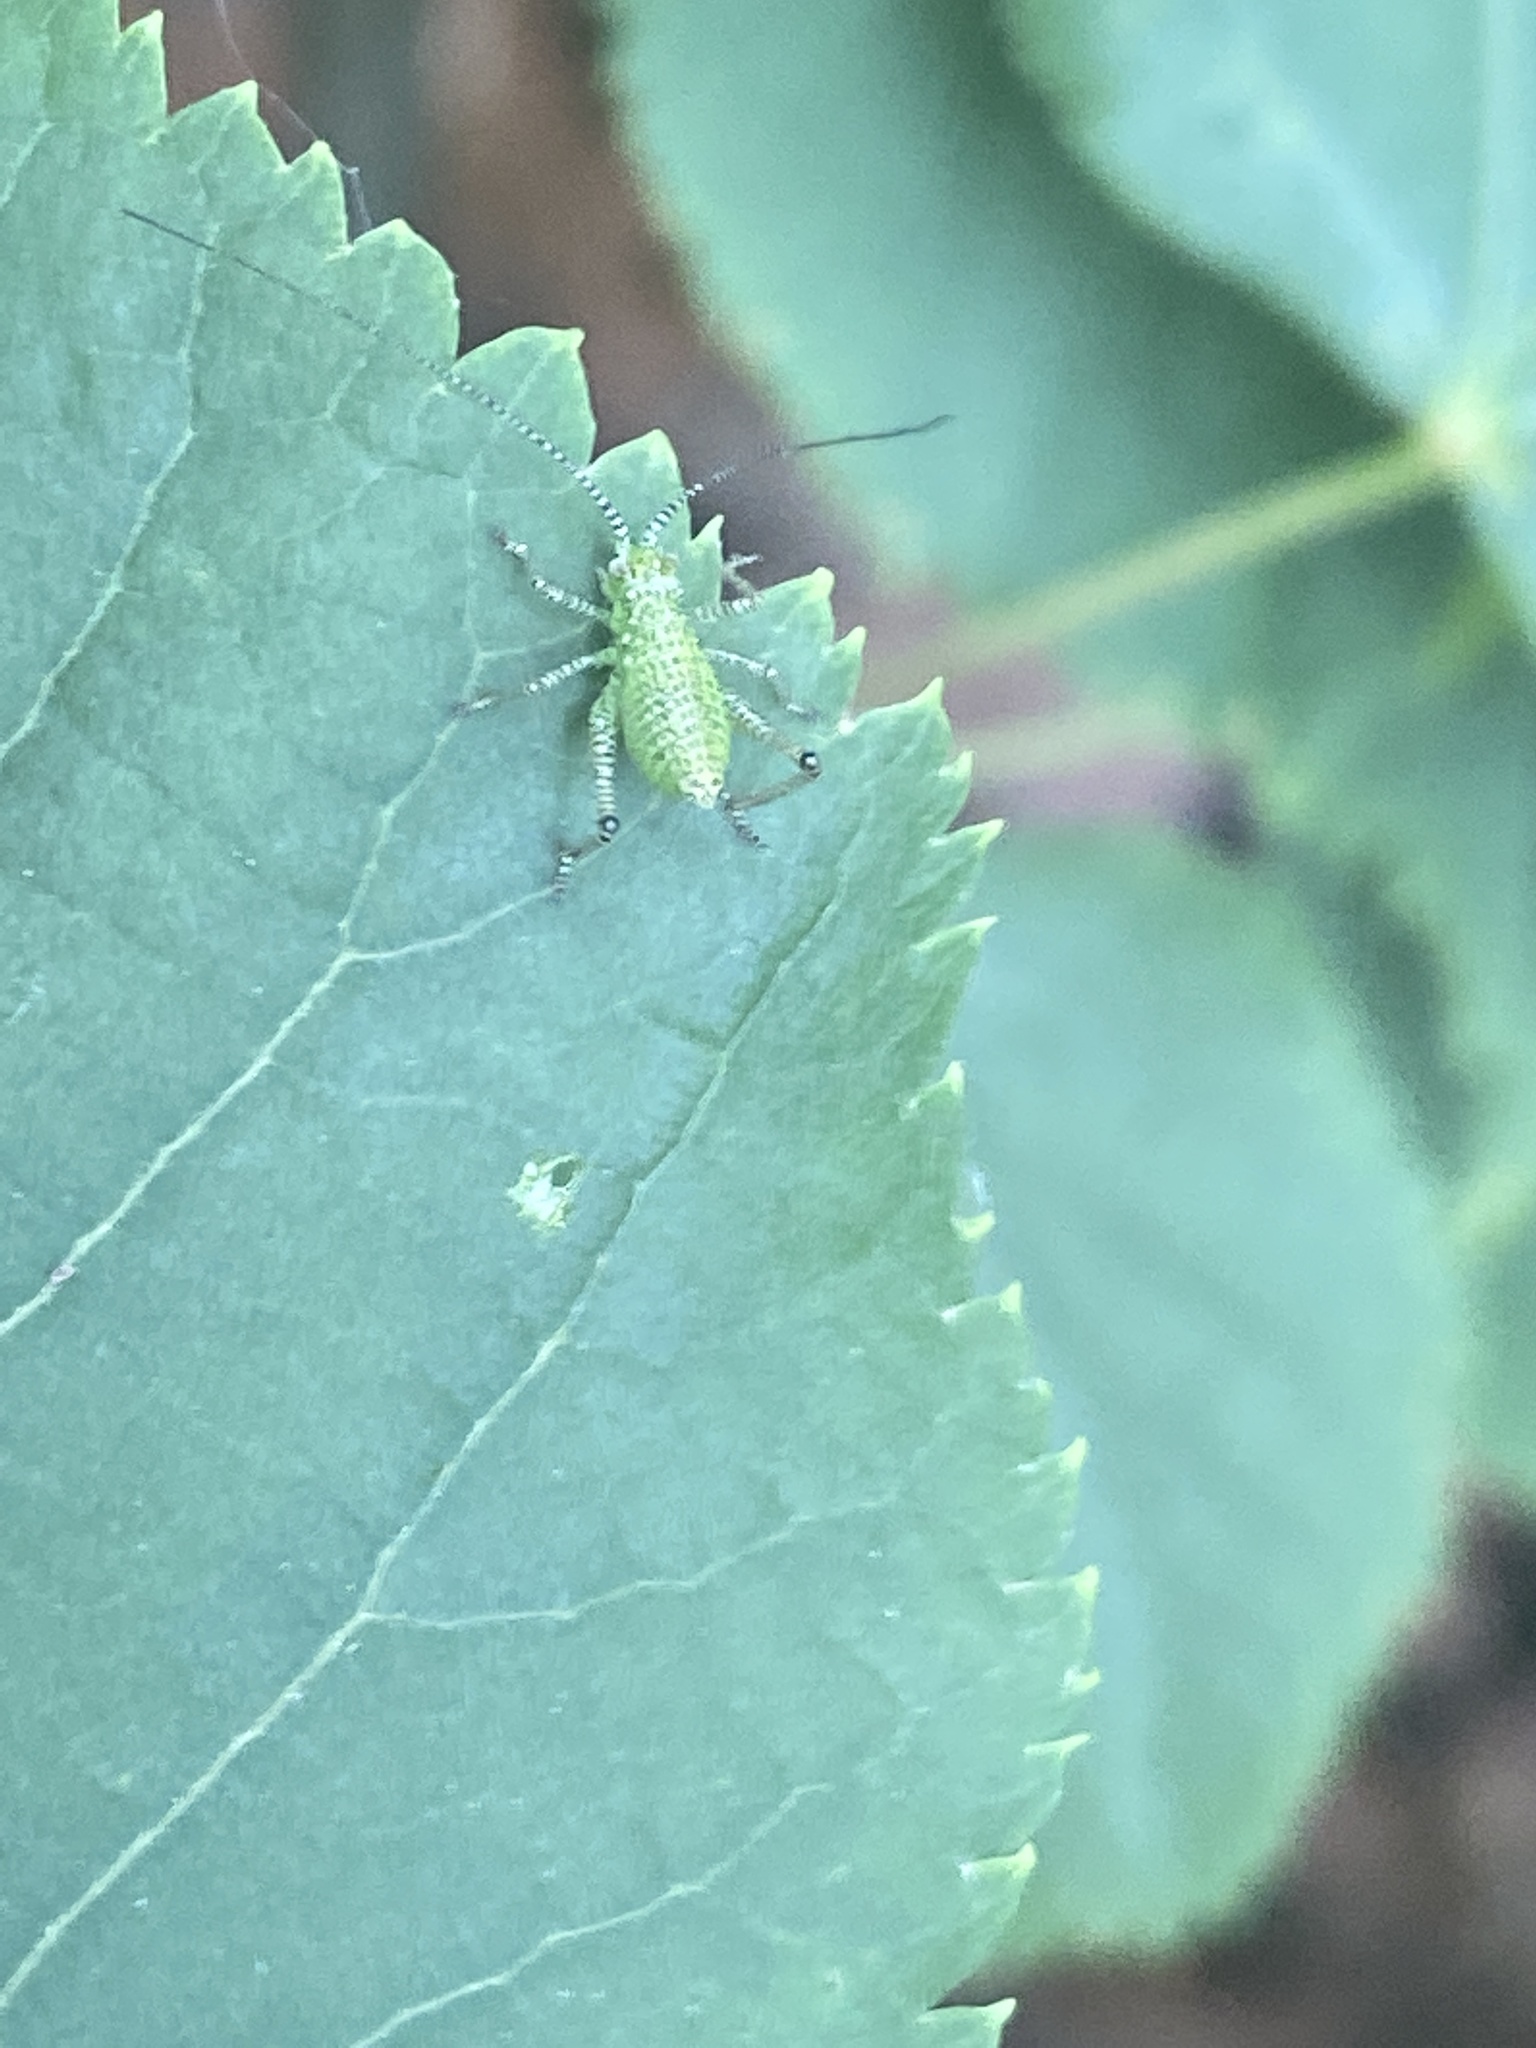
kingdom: Animalia
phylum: Arthropoda
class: Insecta
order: Orthoptera
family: Tettigoniidae
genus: Leptophyes
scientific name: Leptophyes punctatissima
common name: Speckled bush-cricket
